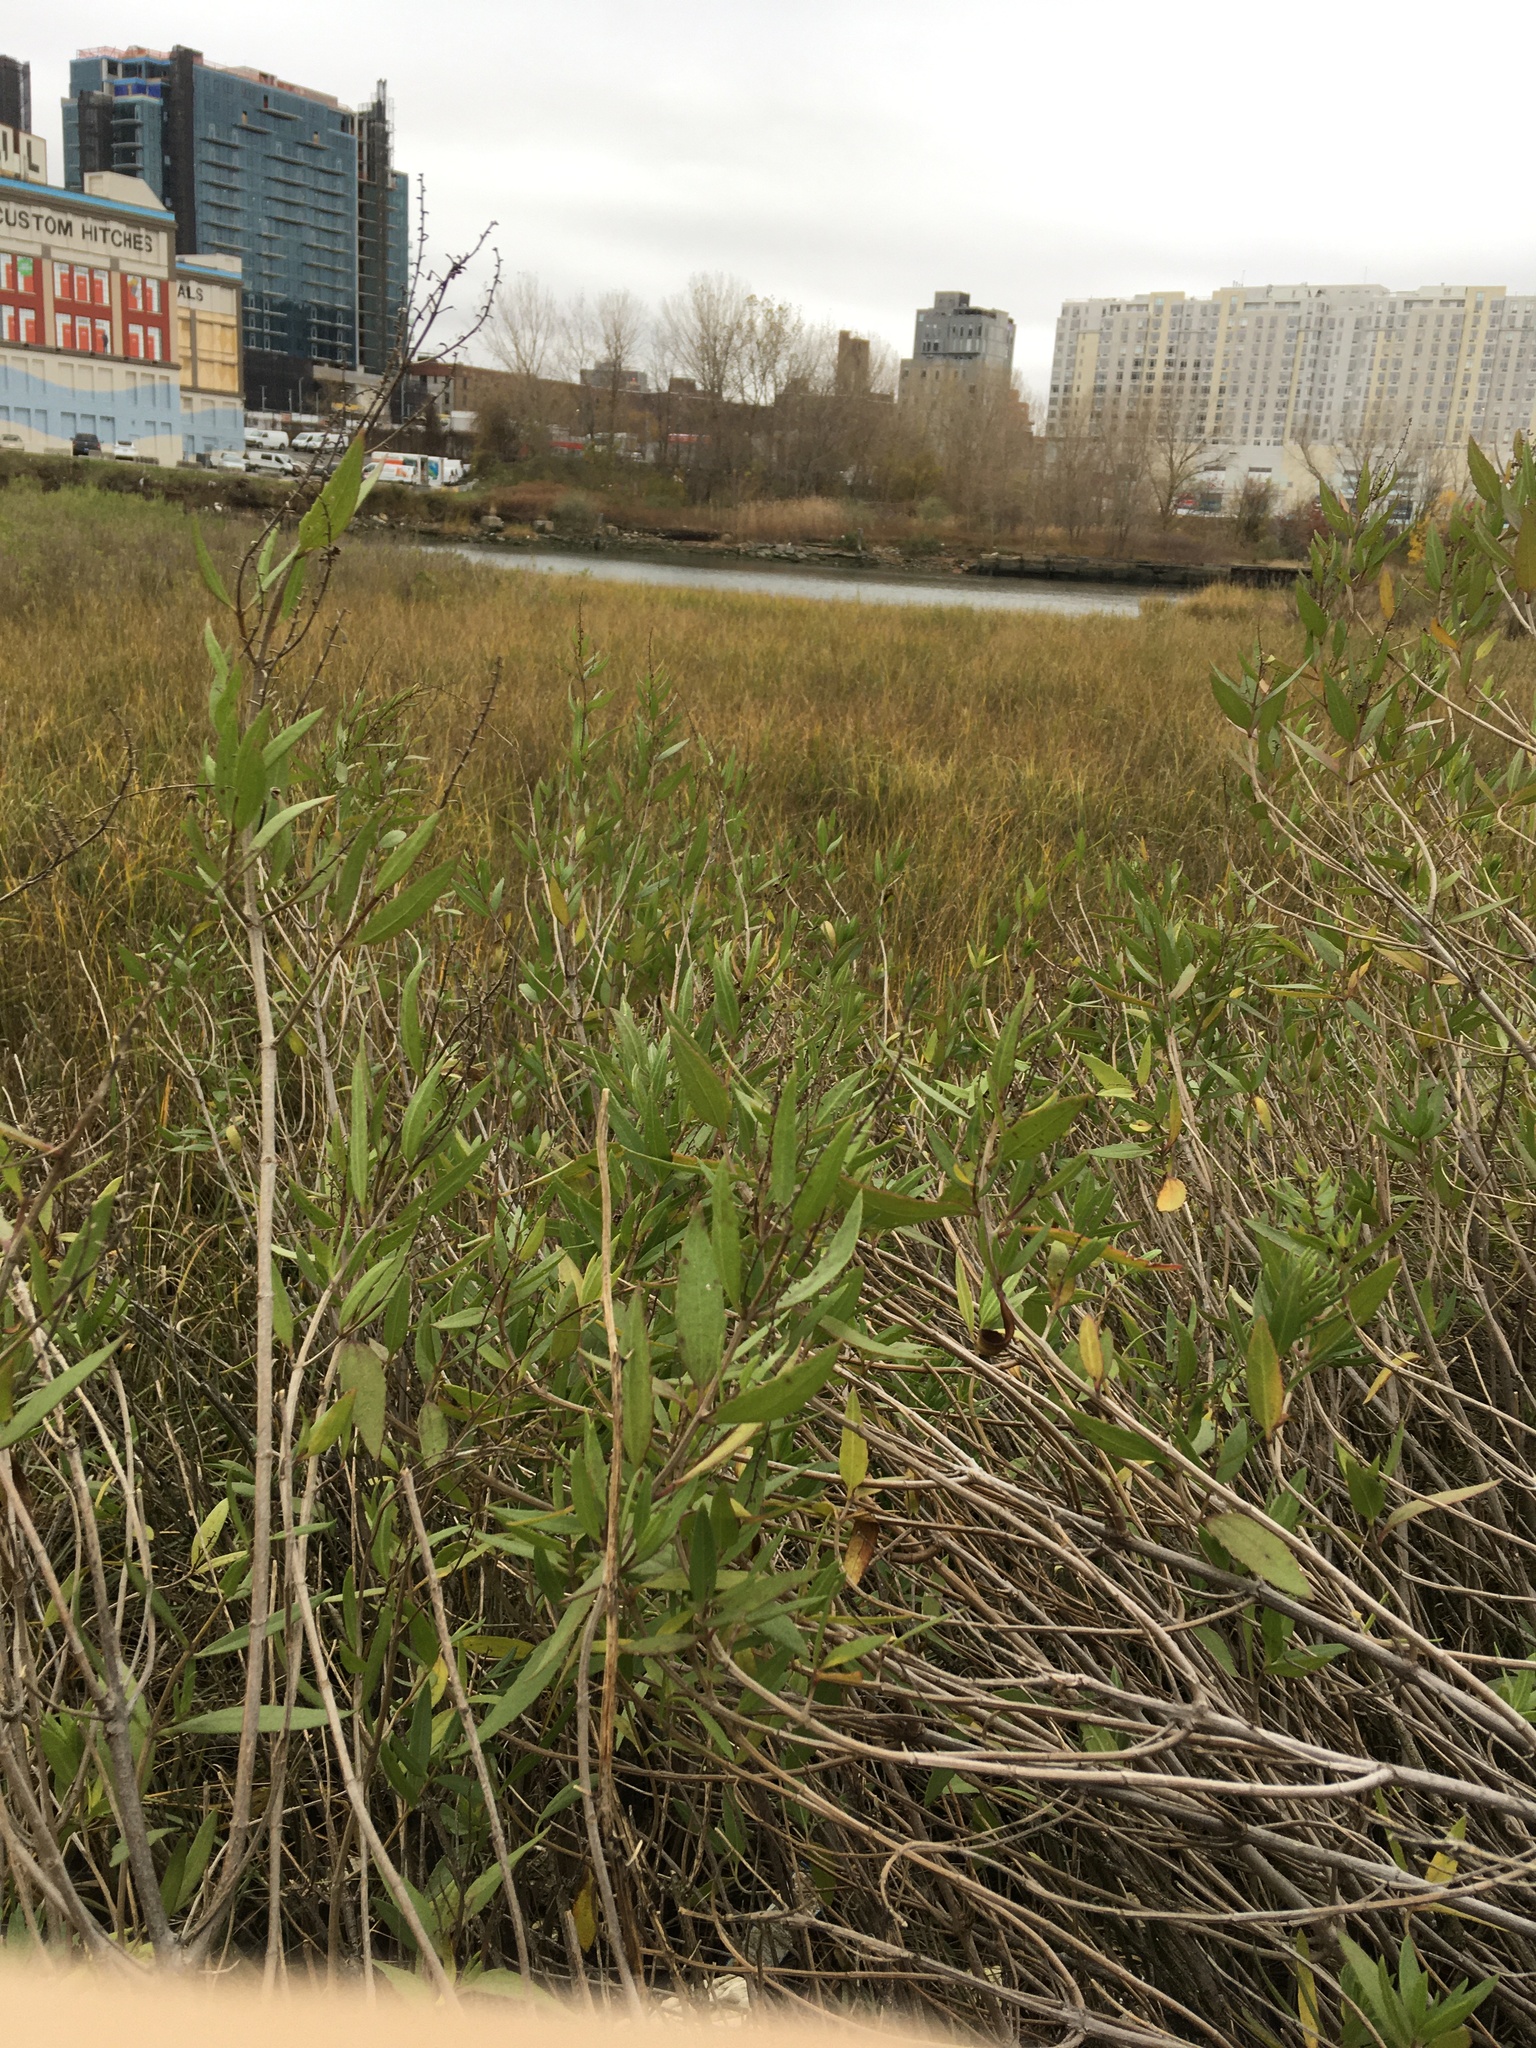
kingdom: Plantae
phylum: Tracheophyta
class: Magnoliopsida
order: Asterales
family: Asteraceae
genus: Iva
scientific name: Iva frutescens
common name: Big-leaved marsh-elder
